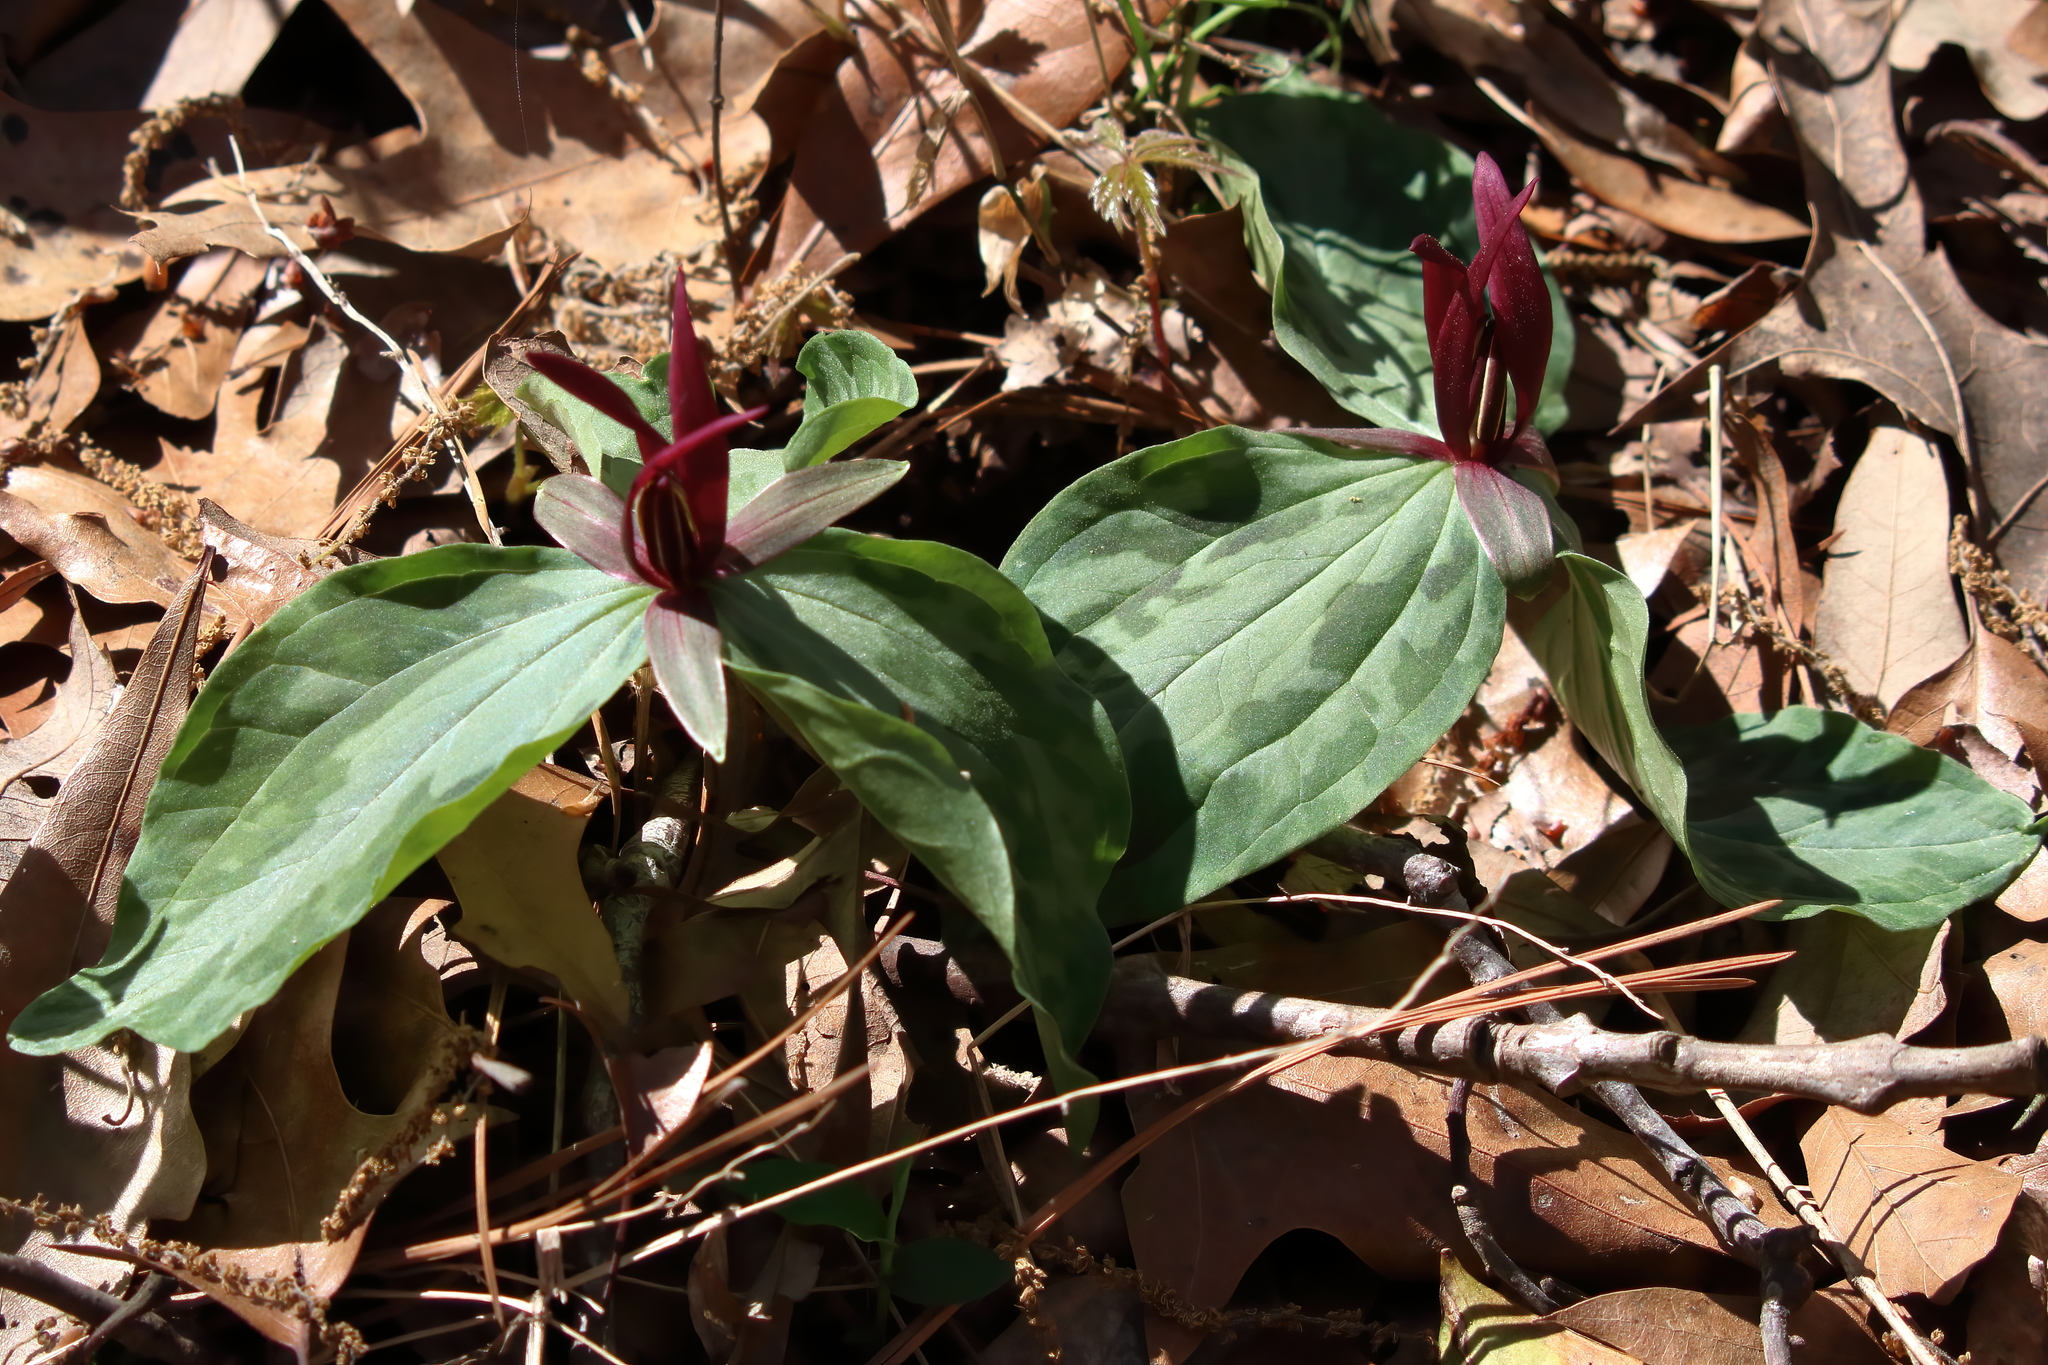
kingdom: Plantae
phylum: Tracheophyta
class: Liliopsida
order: Liliales
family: Melanthiaceae
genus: Trillium
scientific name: Trillium foetidissimum
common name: Mississippi river trillium
